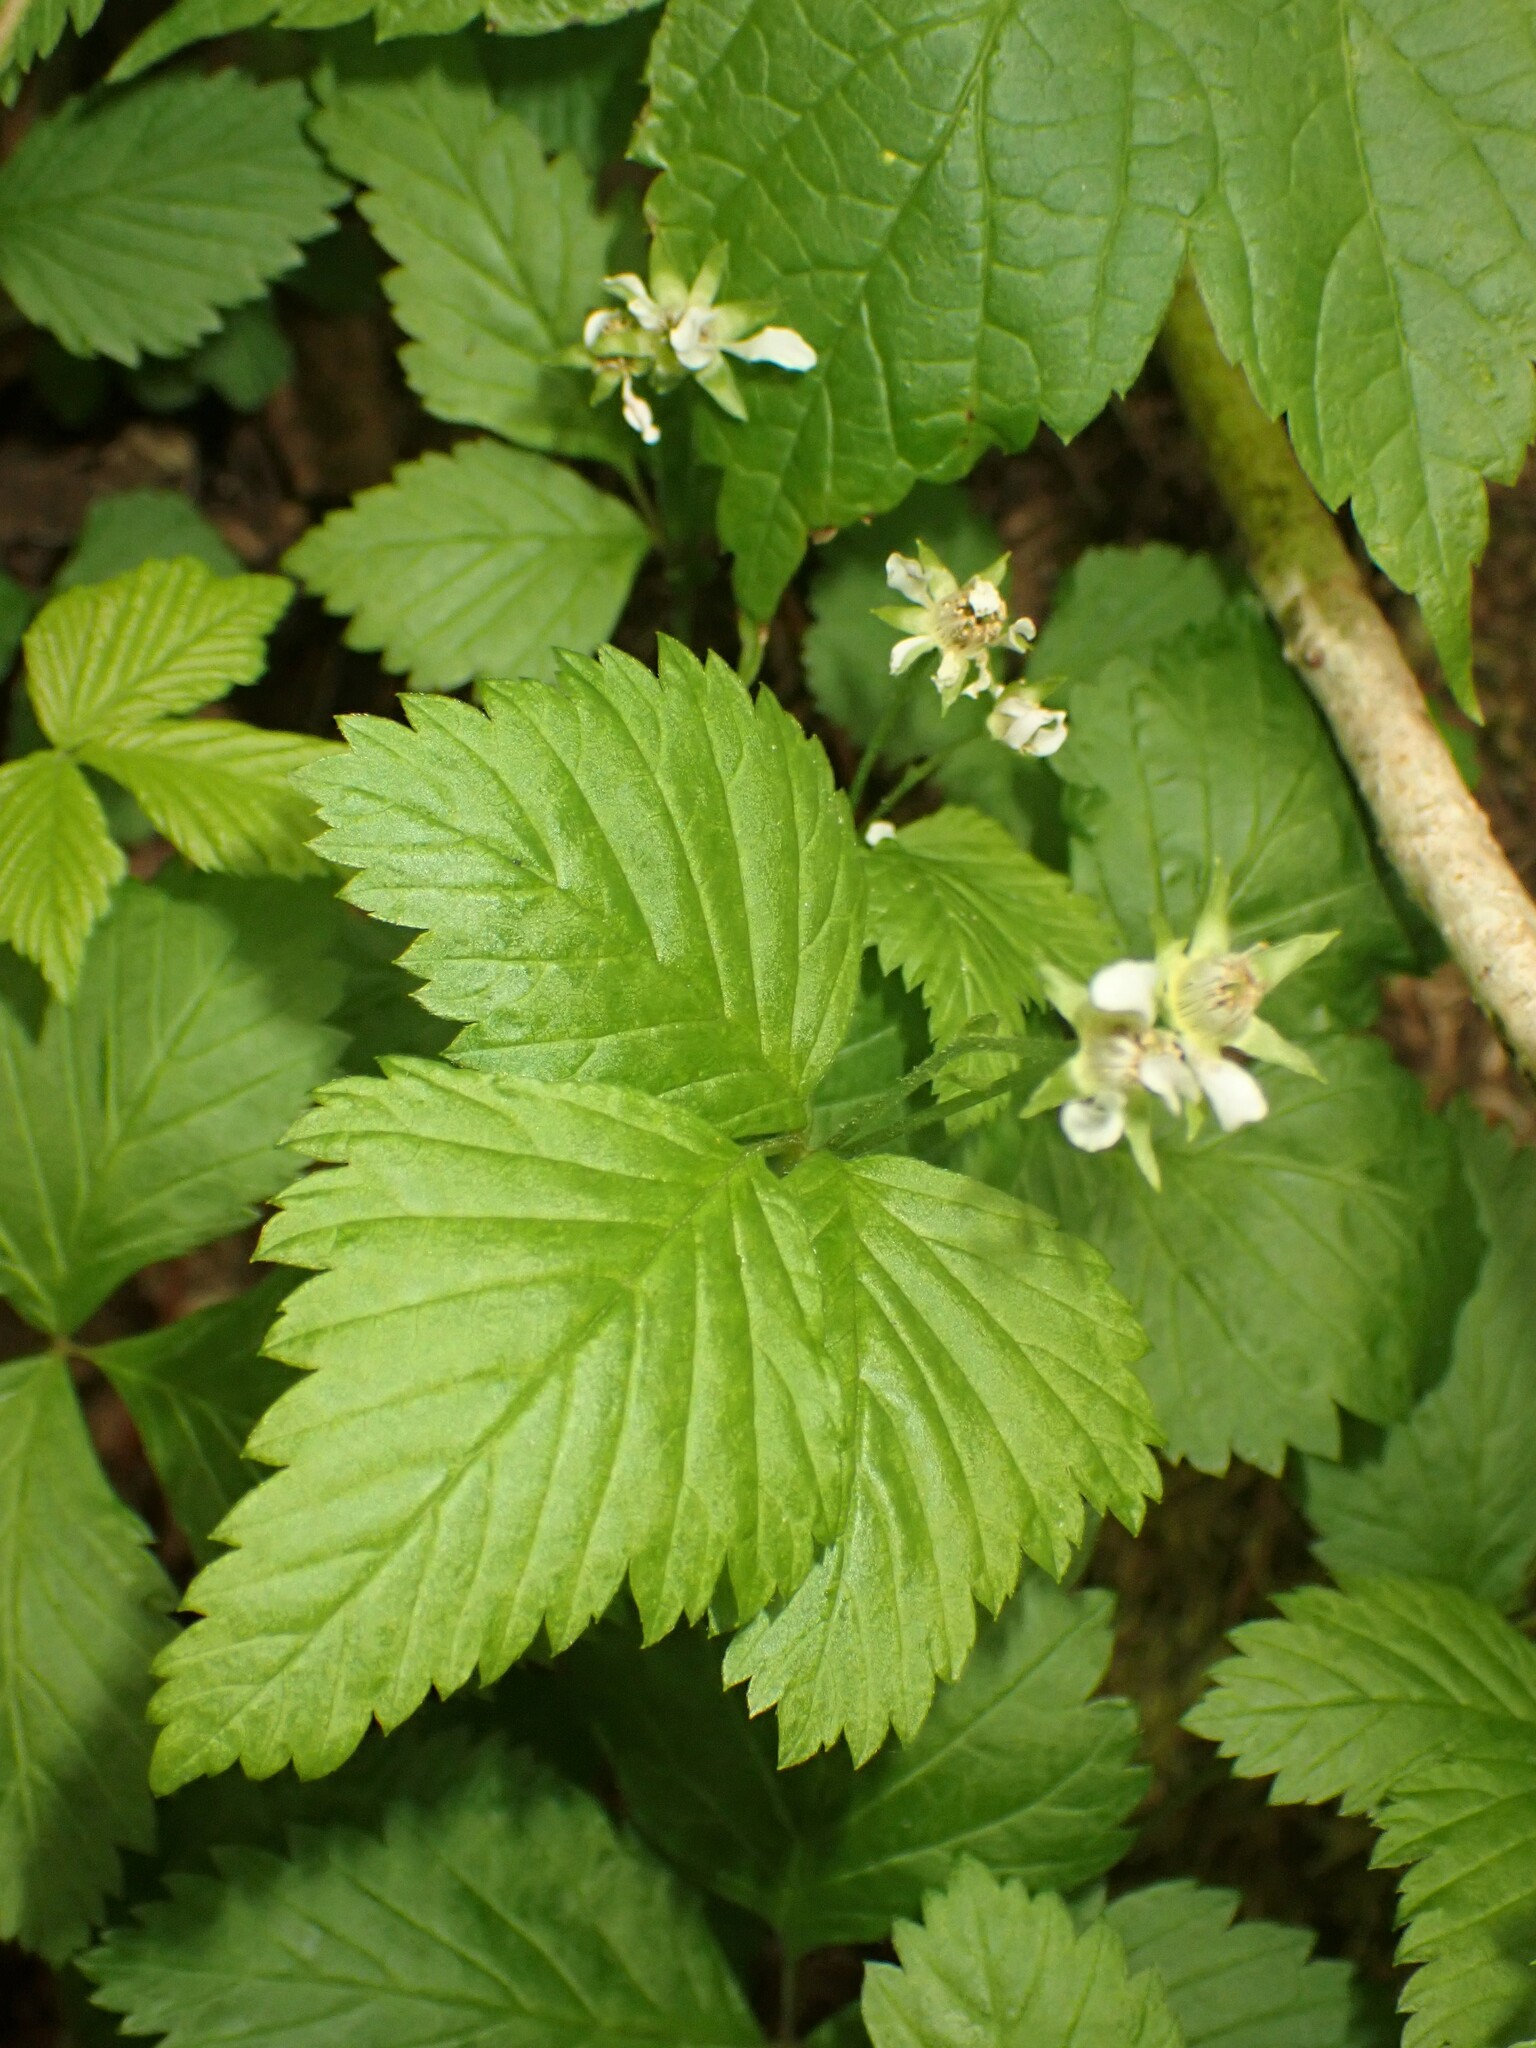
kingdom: Plantae
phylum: Tracheophyta
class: Magnoliopsida
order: Rosales
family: Rosaceae
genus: Rubus
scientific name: Rubus pubescens
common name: Dwarf raspberry
